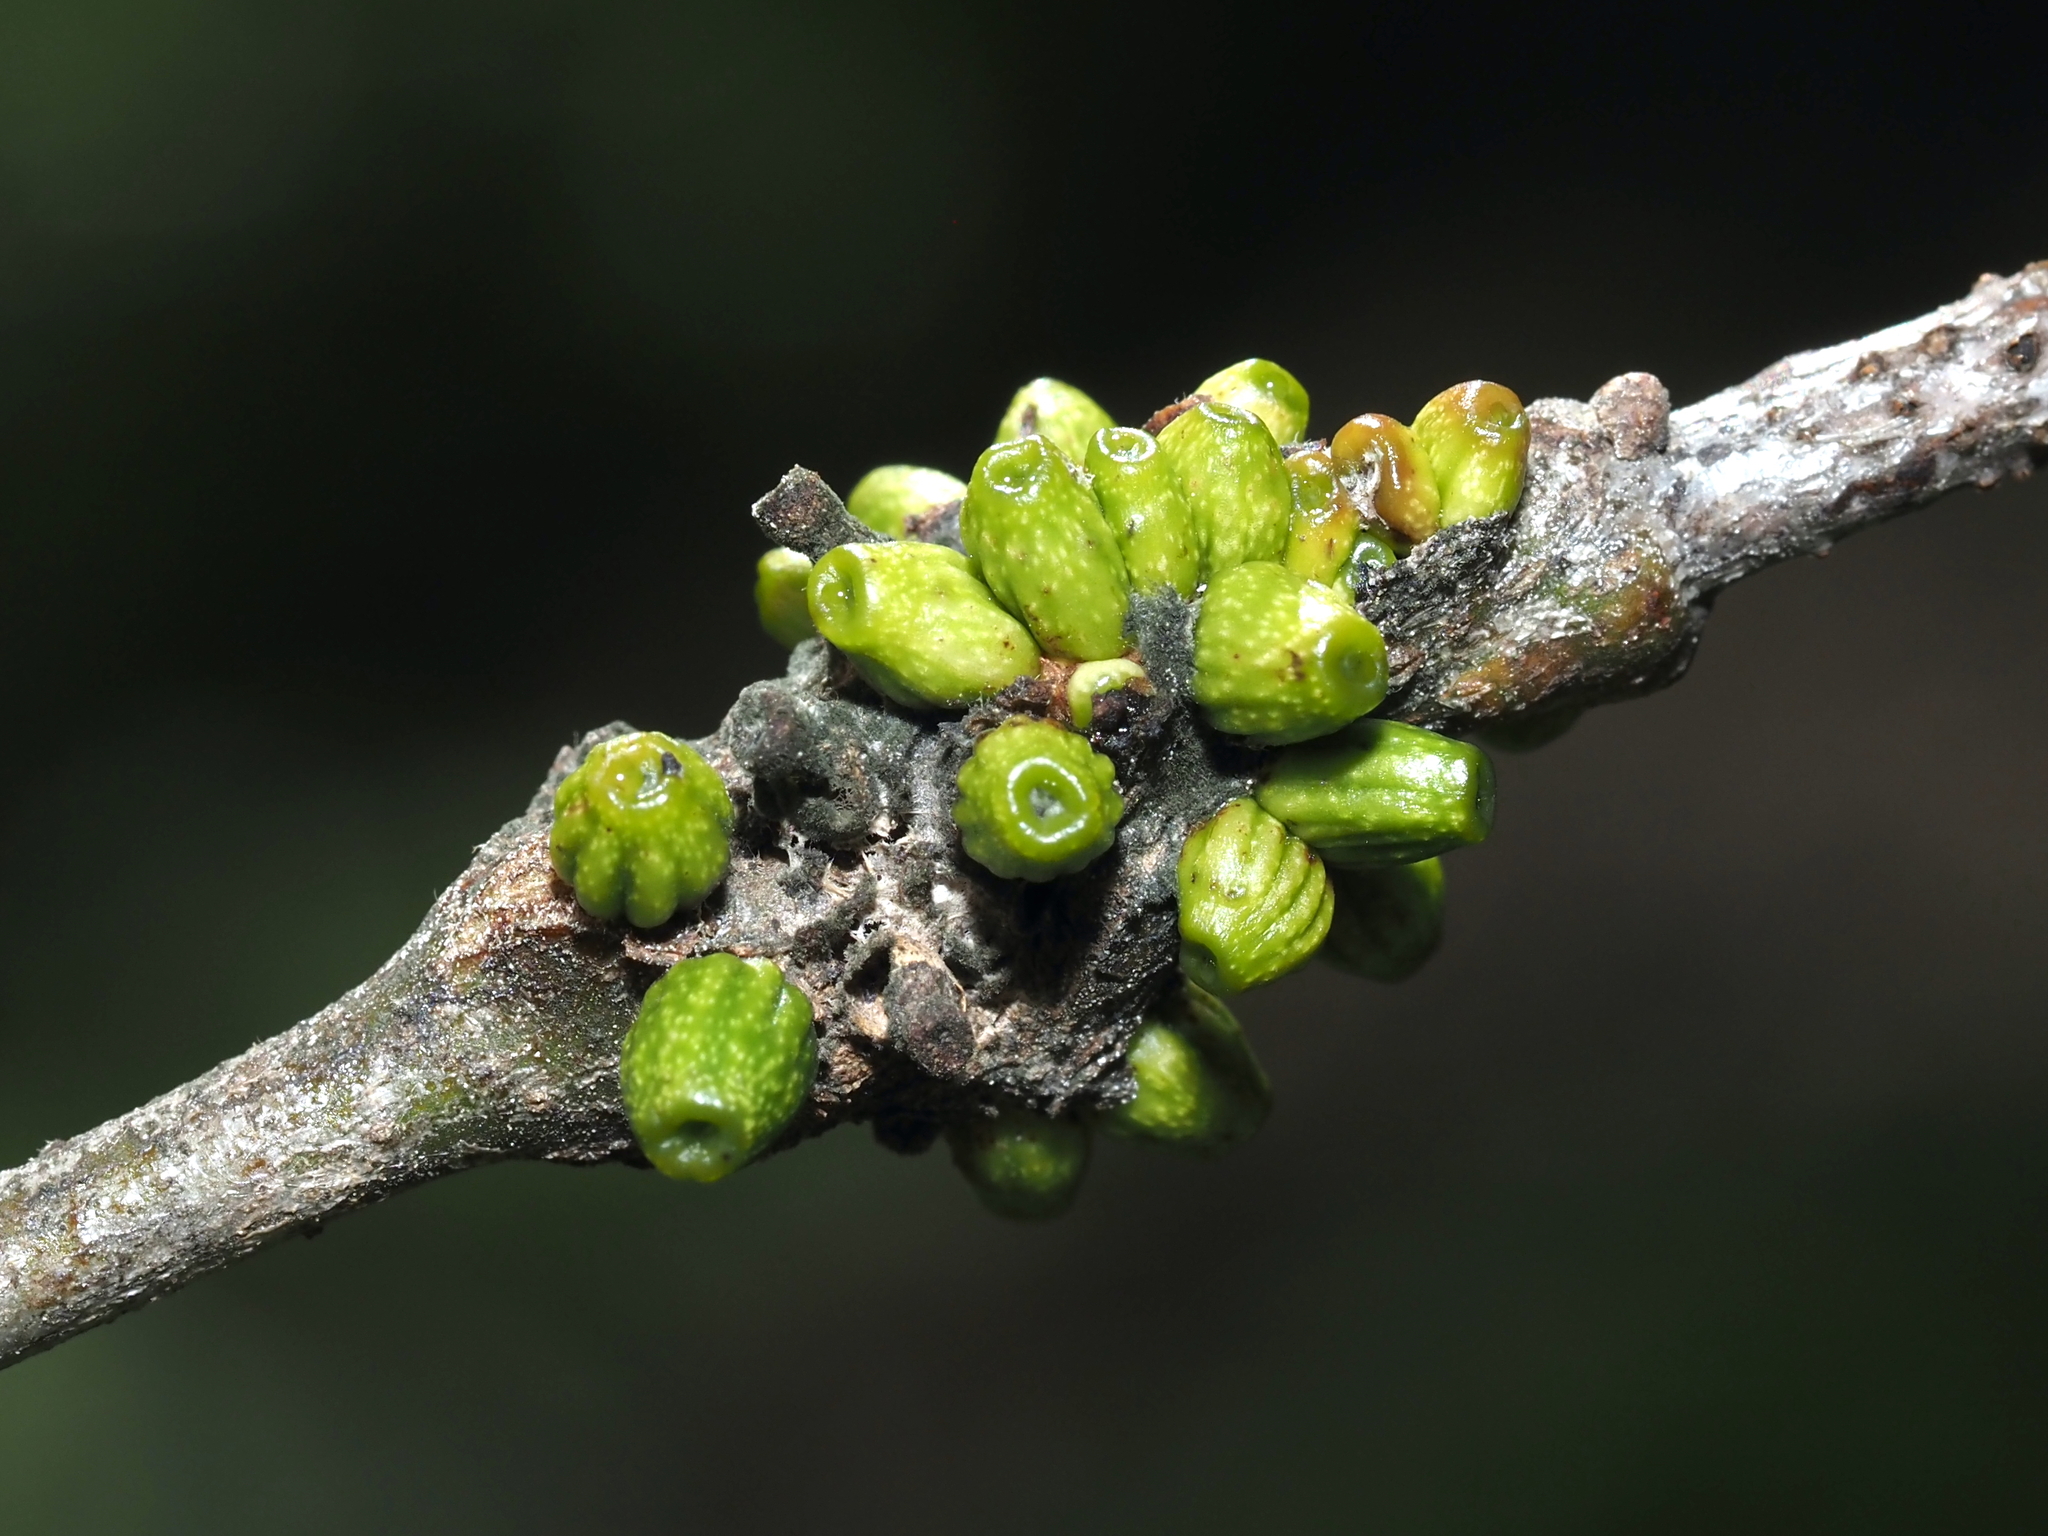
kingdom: Animalia
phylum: Arthropoda
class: Insecta
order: Hymenoptera
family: Cynipidae
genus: Callirhytis
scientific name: Callirhytis
